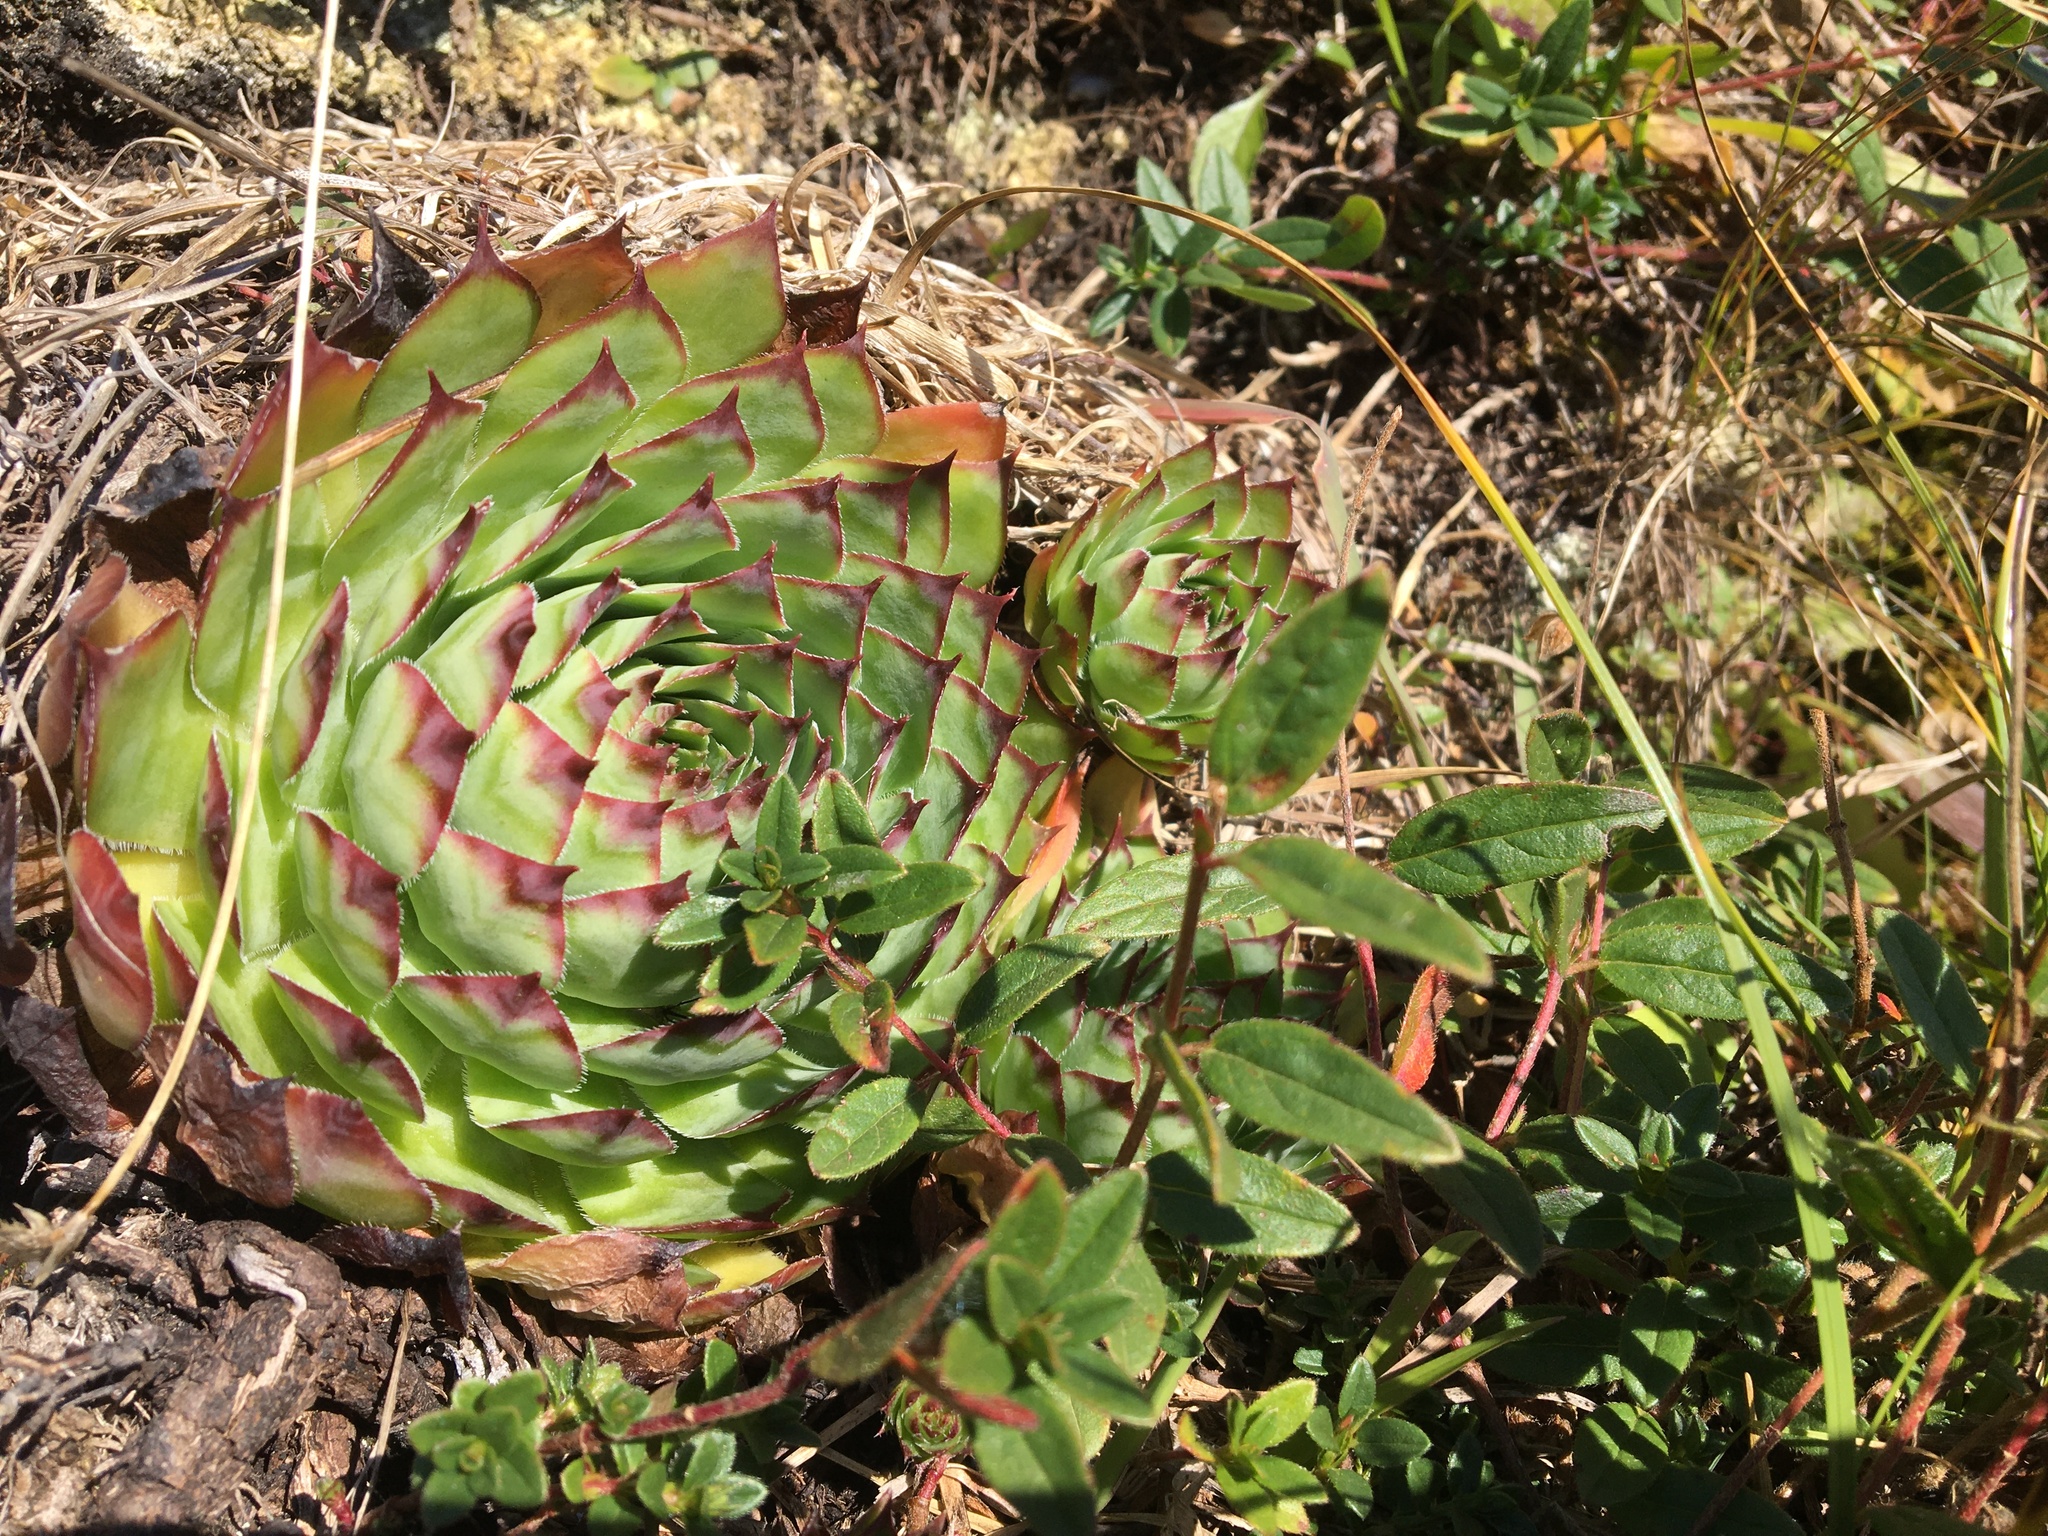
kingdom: Plantae
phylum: Tracheophyta
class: Magnoliopsida
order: Saxifragales
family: Crassulaceae
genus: Sempervivum
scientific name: Sempervivum tectorum
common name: House-leek
